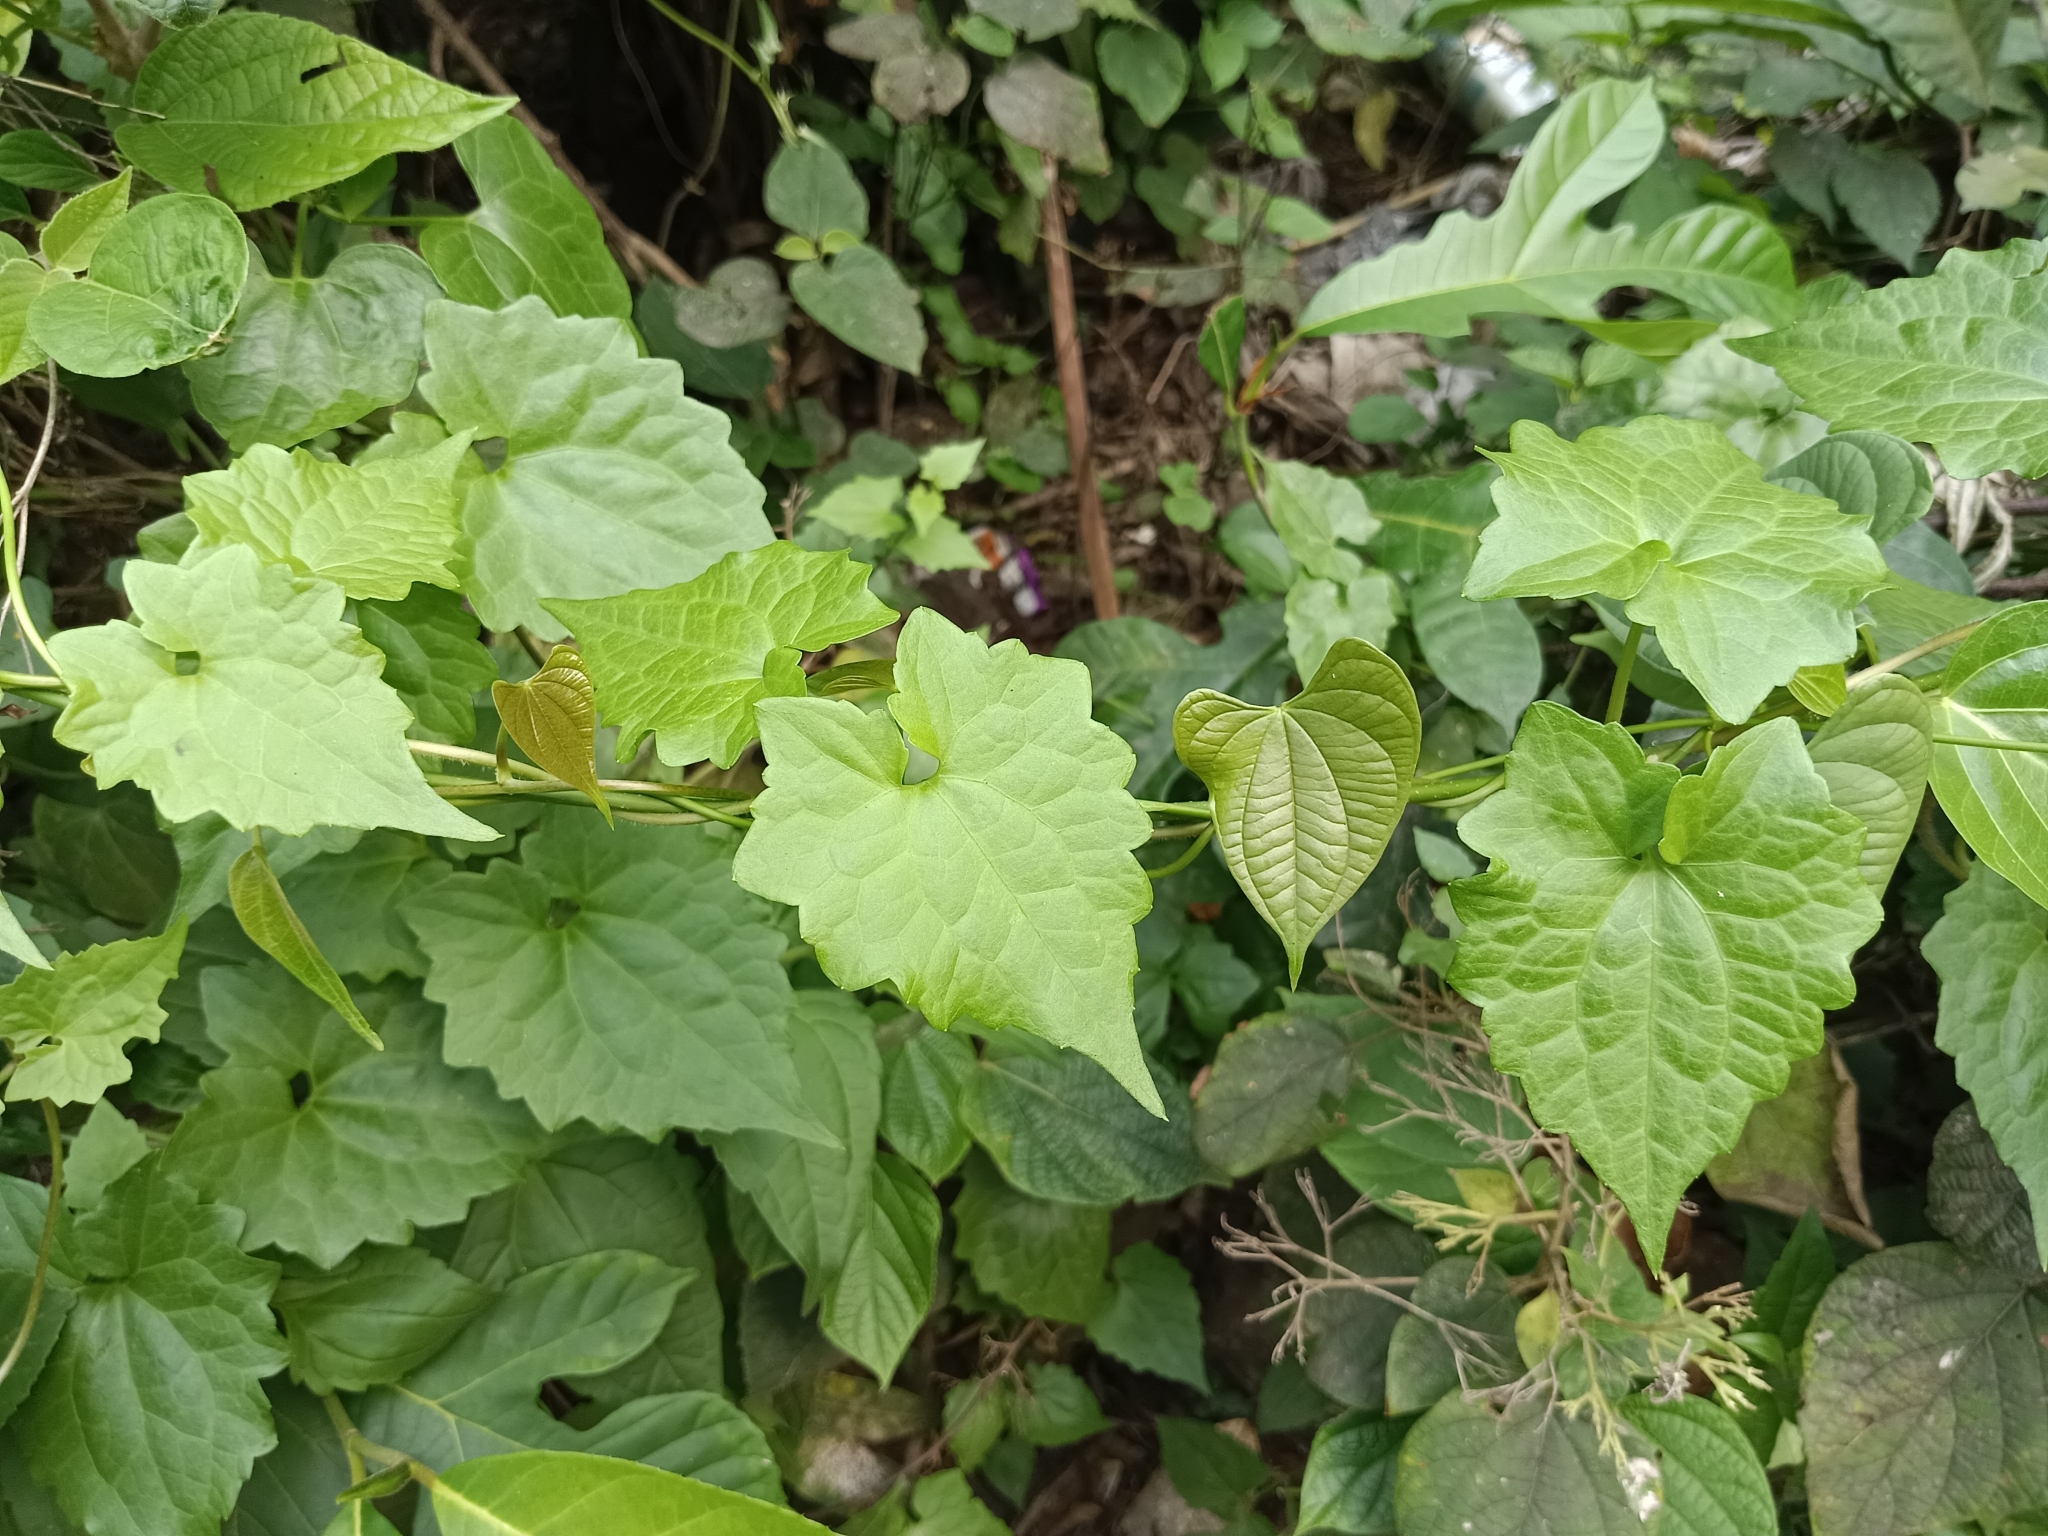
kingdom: Plantae
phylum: Tracheophyta
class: Magnoliopsida
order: Asterales
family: Asteraceae
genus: Mikania
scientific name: Mikania micrantha
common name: Mile-a-minute
